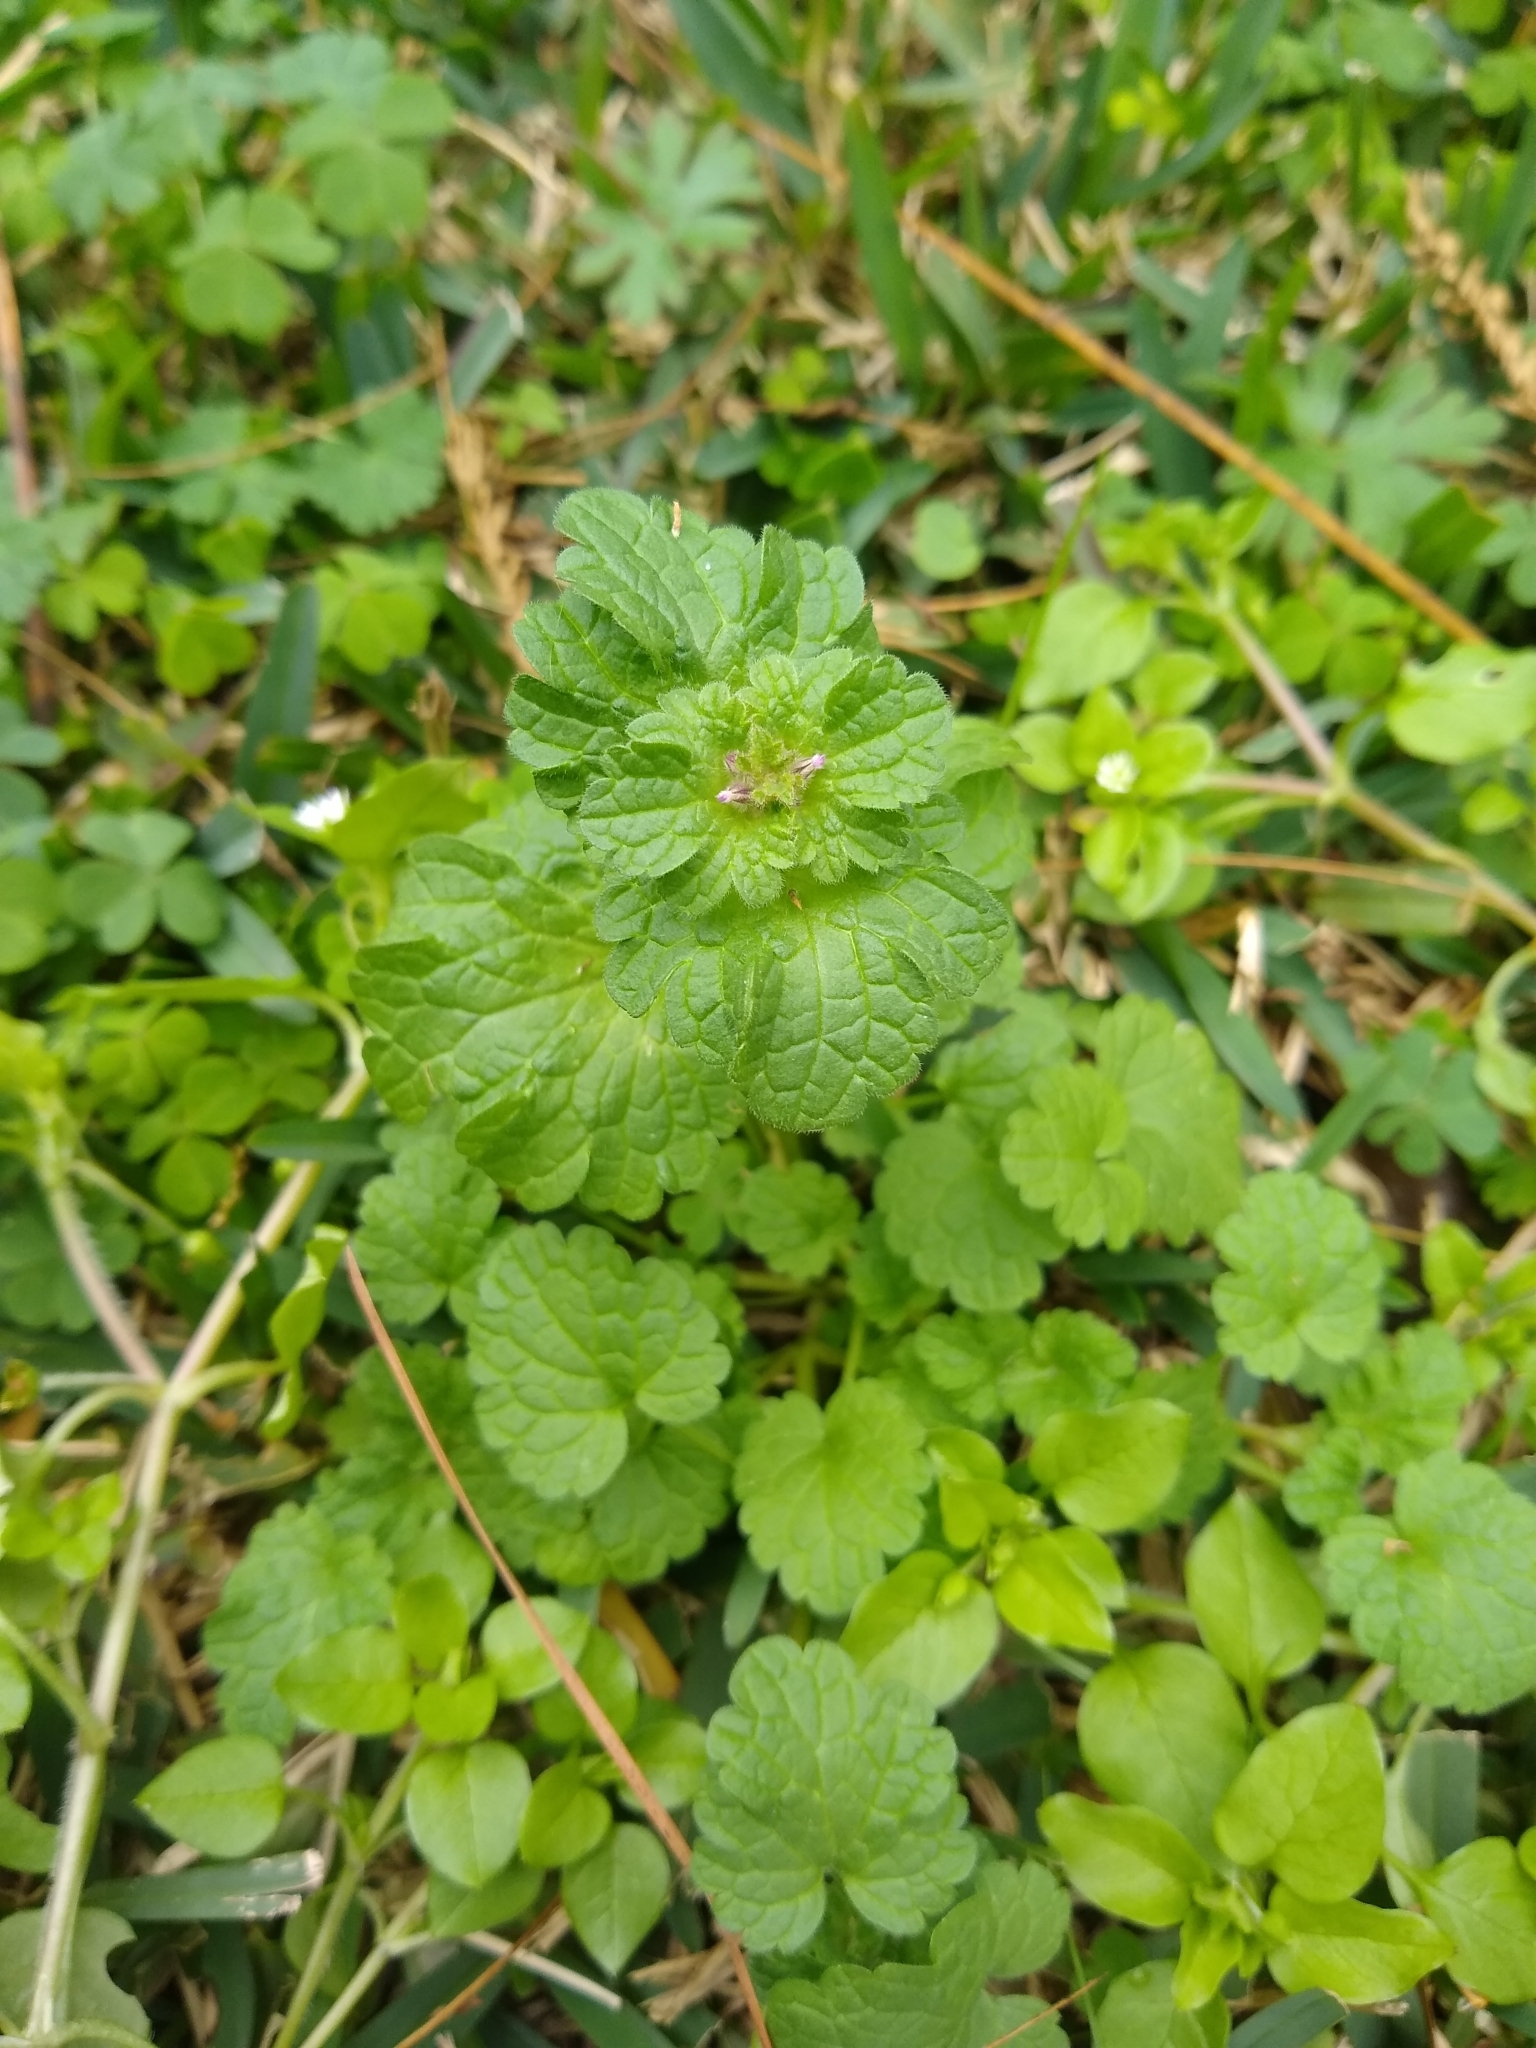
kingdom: Plantae
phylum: Tracheophyta
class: Magnoliopsida
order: Lamiales
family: Lamiaceae
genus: Lamium
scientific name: Lamium amplexicaule
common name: Henbit dead-nettle
